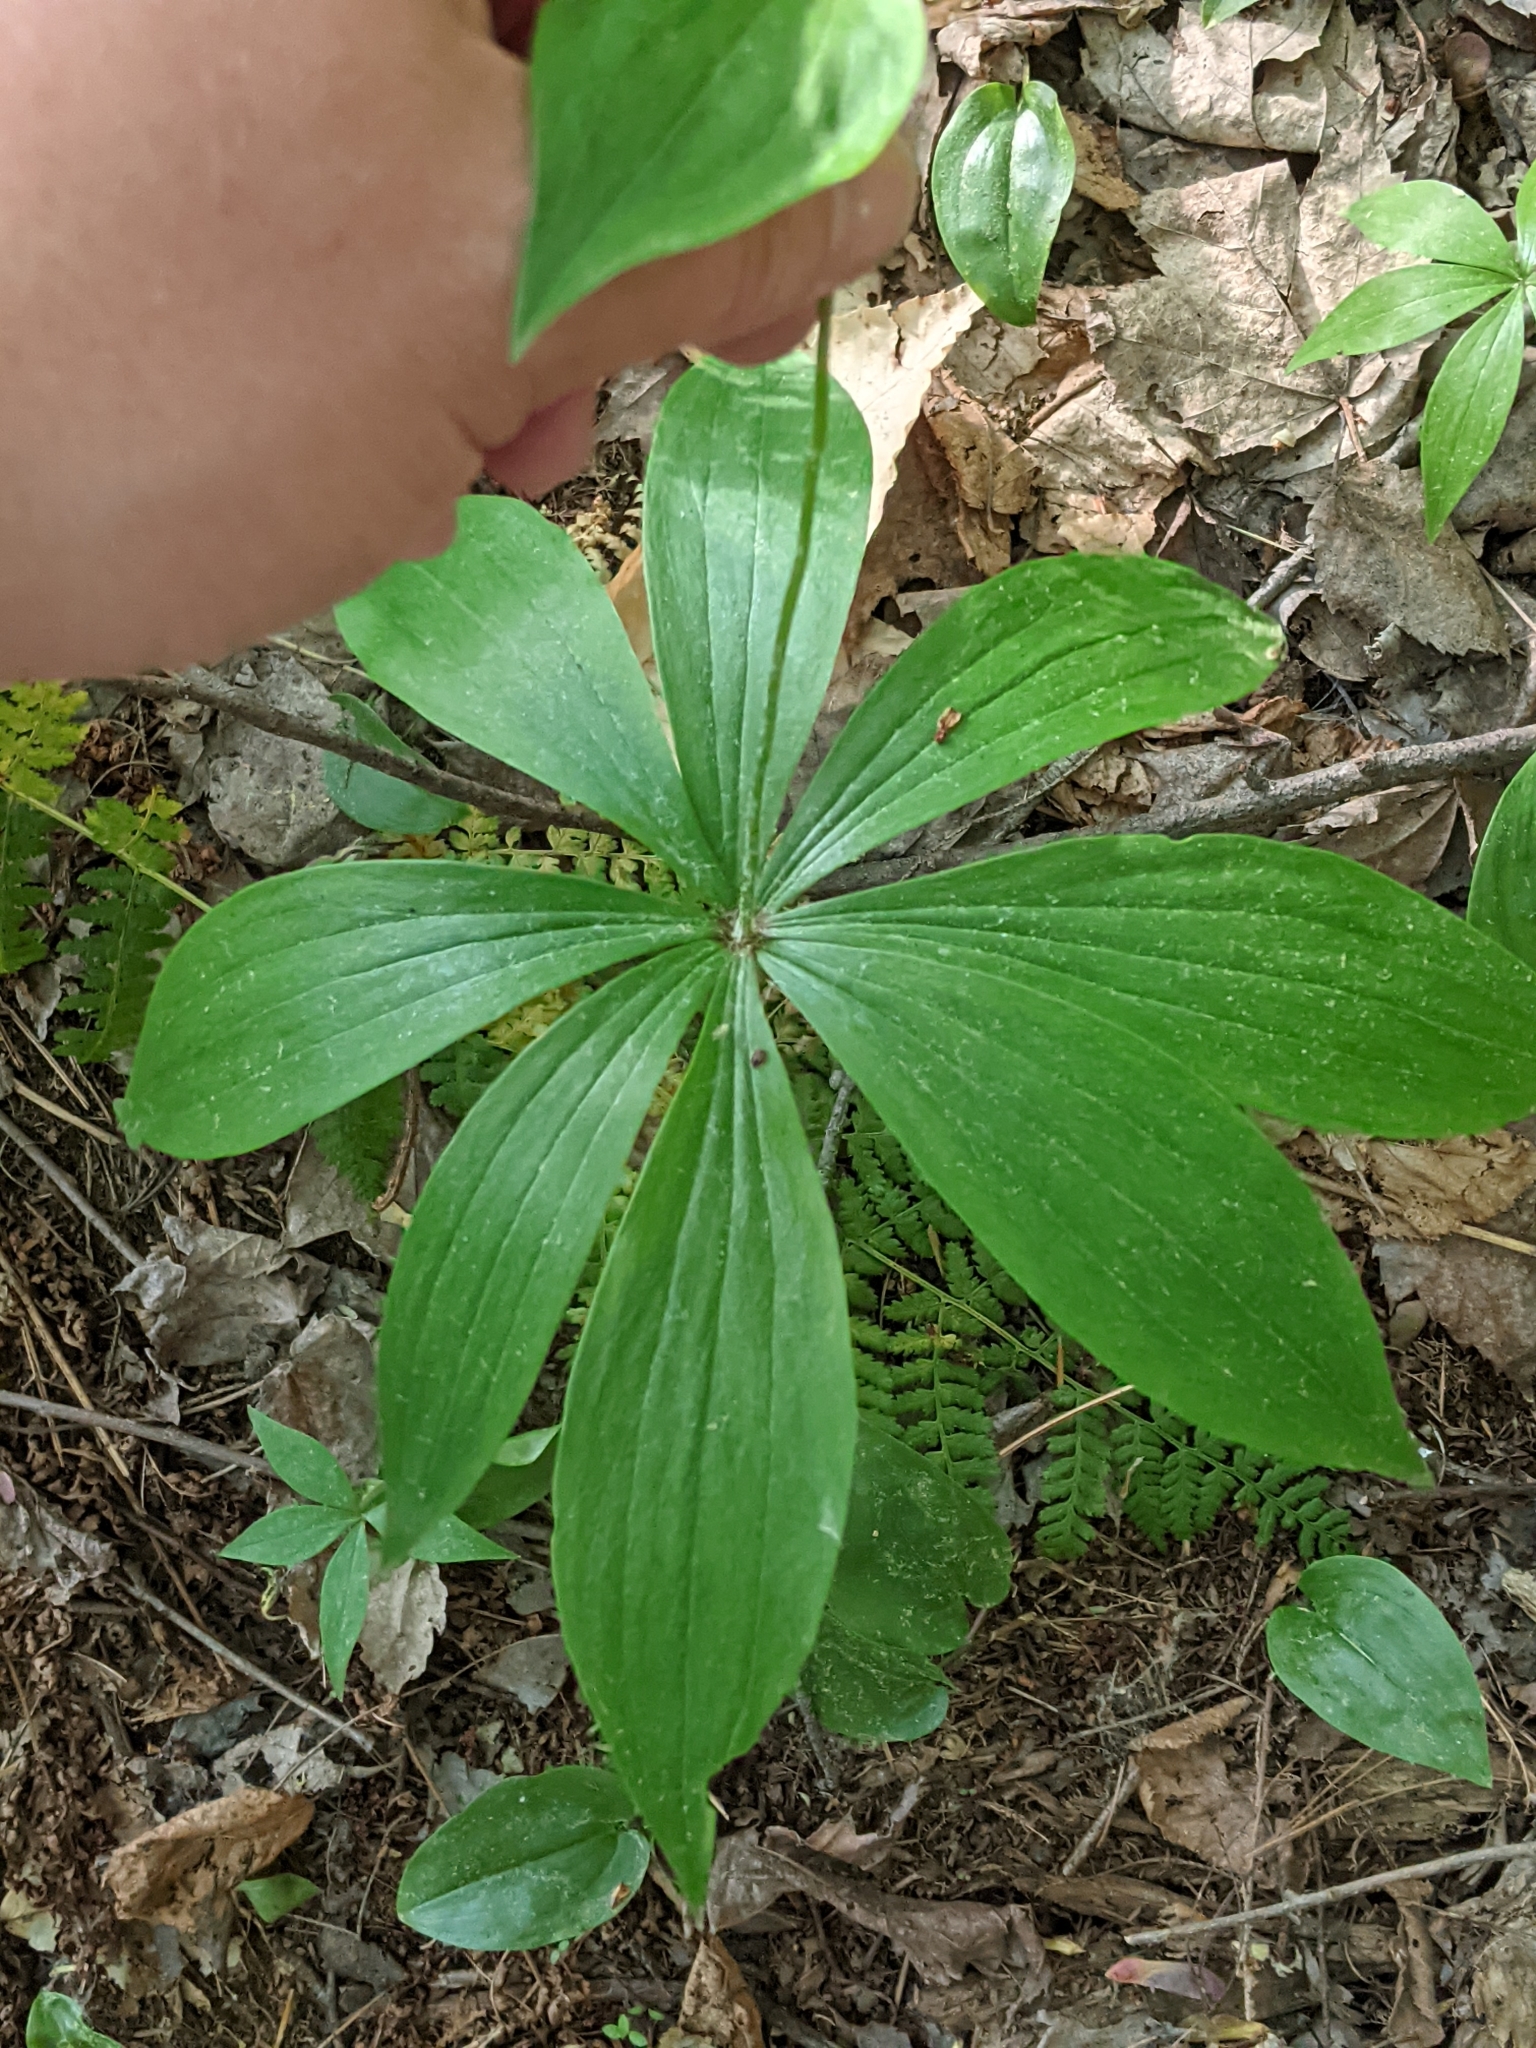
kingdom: Plantae
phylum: Tracheophyta
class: Liliopsida
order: Liliales
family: Liliaceae
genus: Medeola
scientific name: Medeola virginiana
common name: Indian cucumber-root
